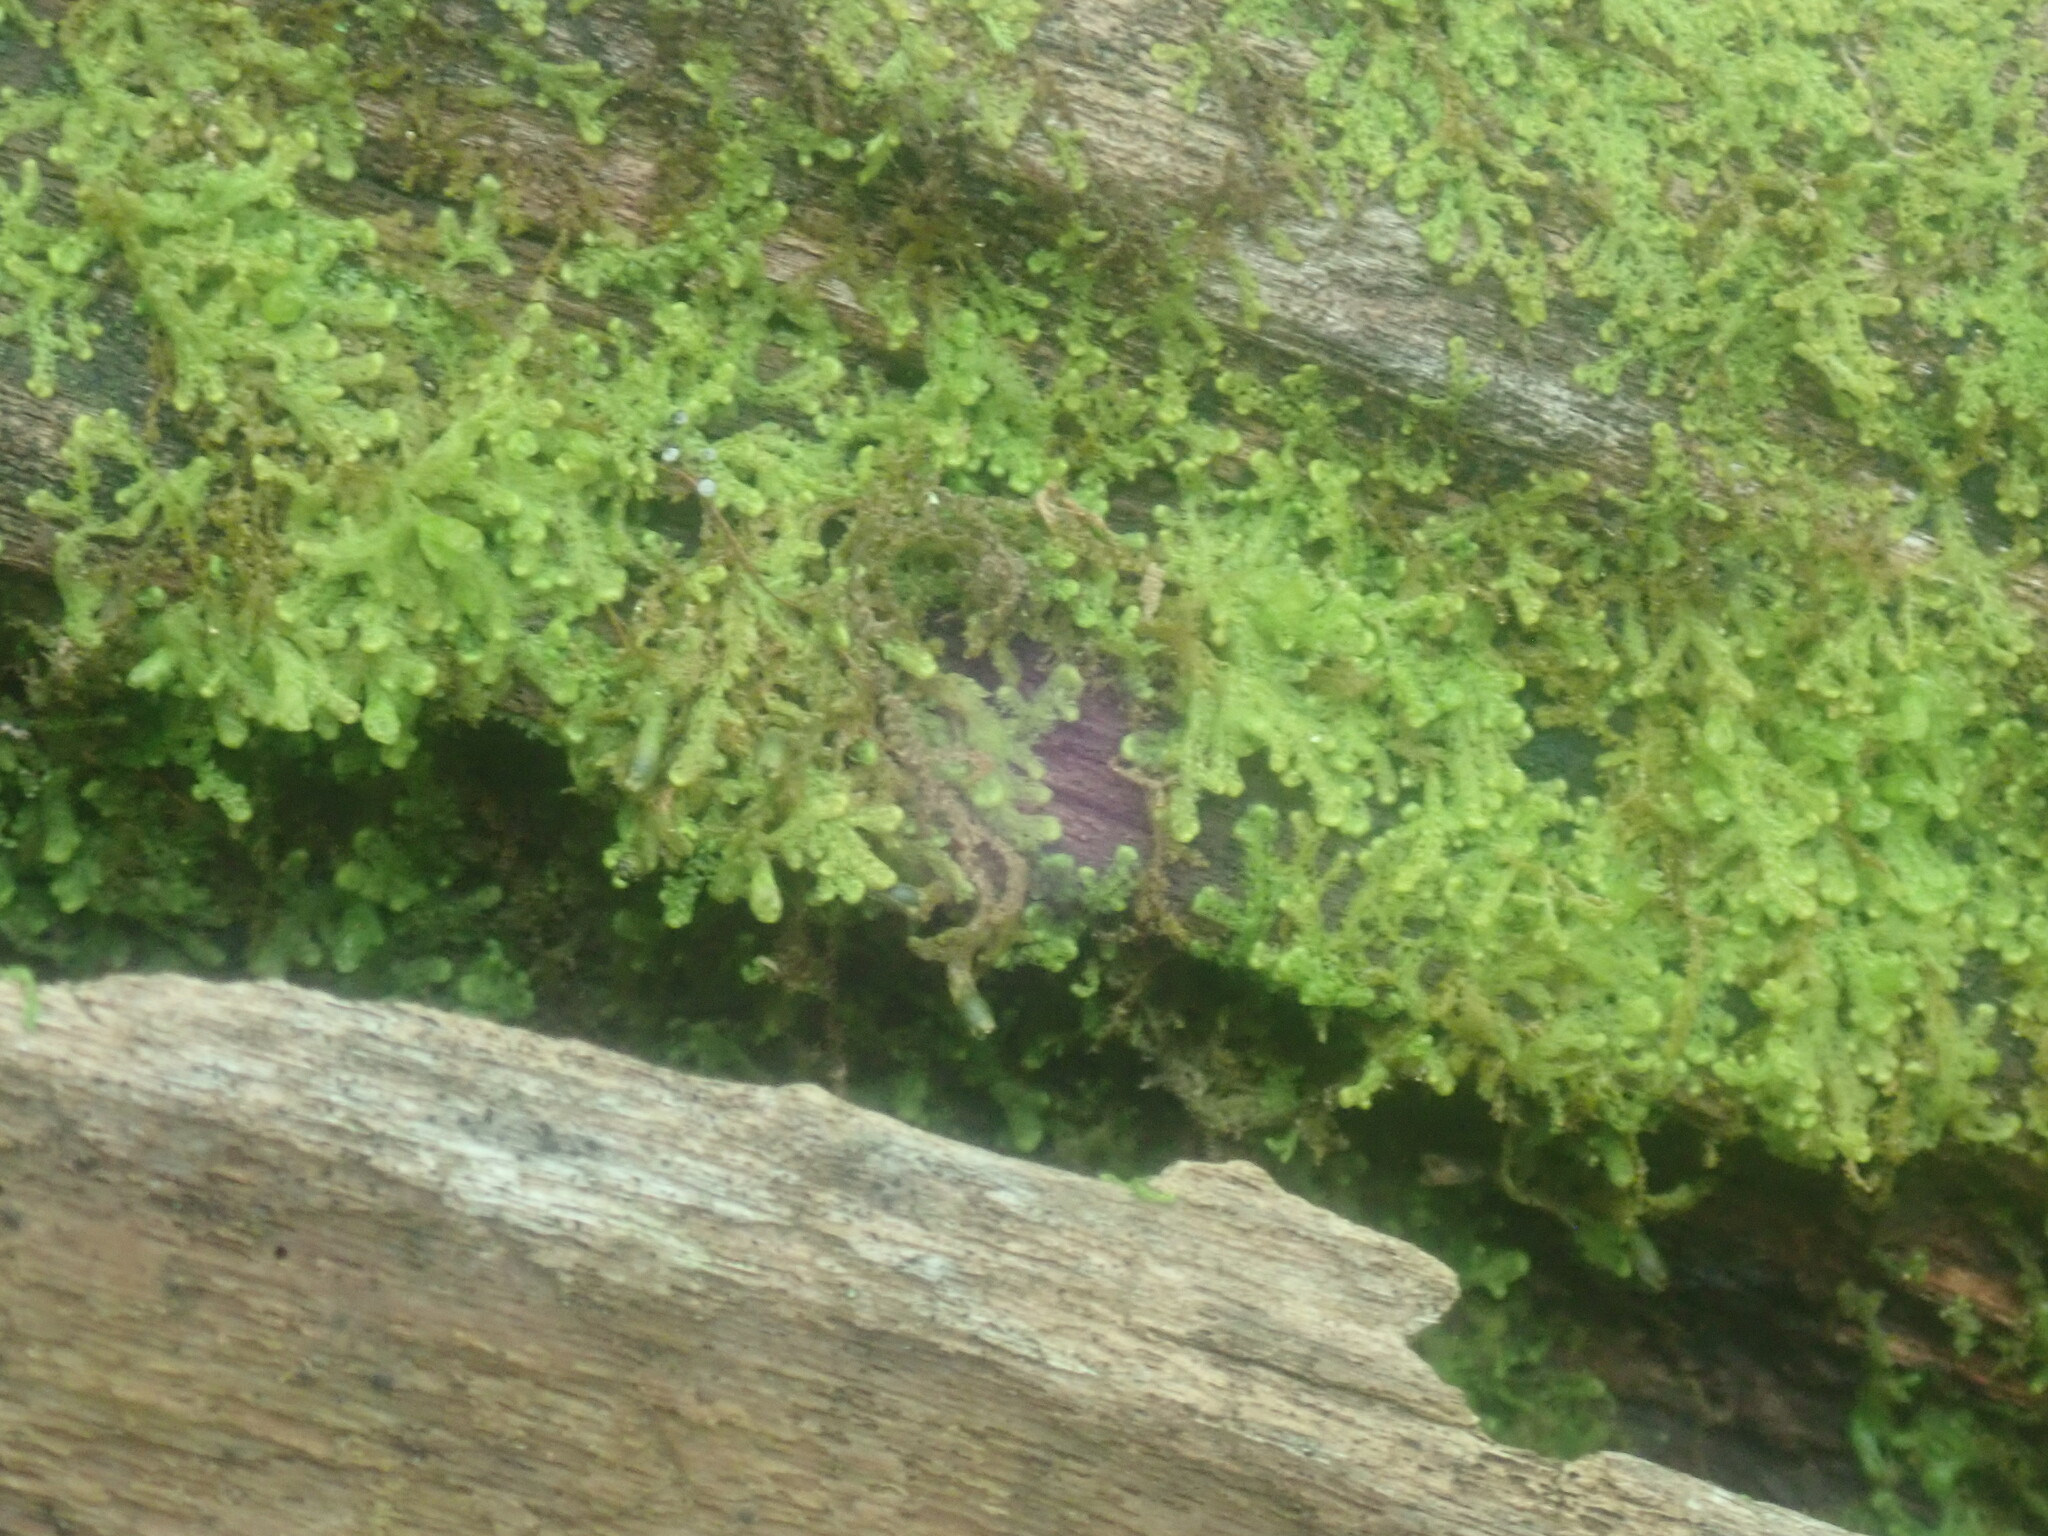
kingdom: Plantae
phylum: Marchantiophyta
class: Jungermanniopsida
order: Ptilidiales
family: Ptilidiaceae
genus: Ptilidium
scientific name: Ptilidium pulcherrimum
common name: Tree fringewort
